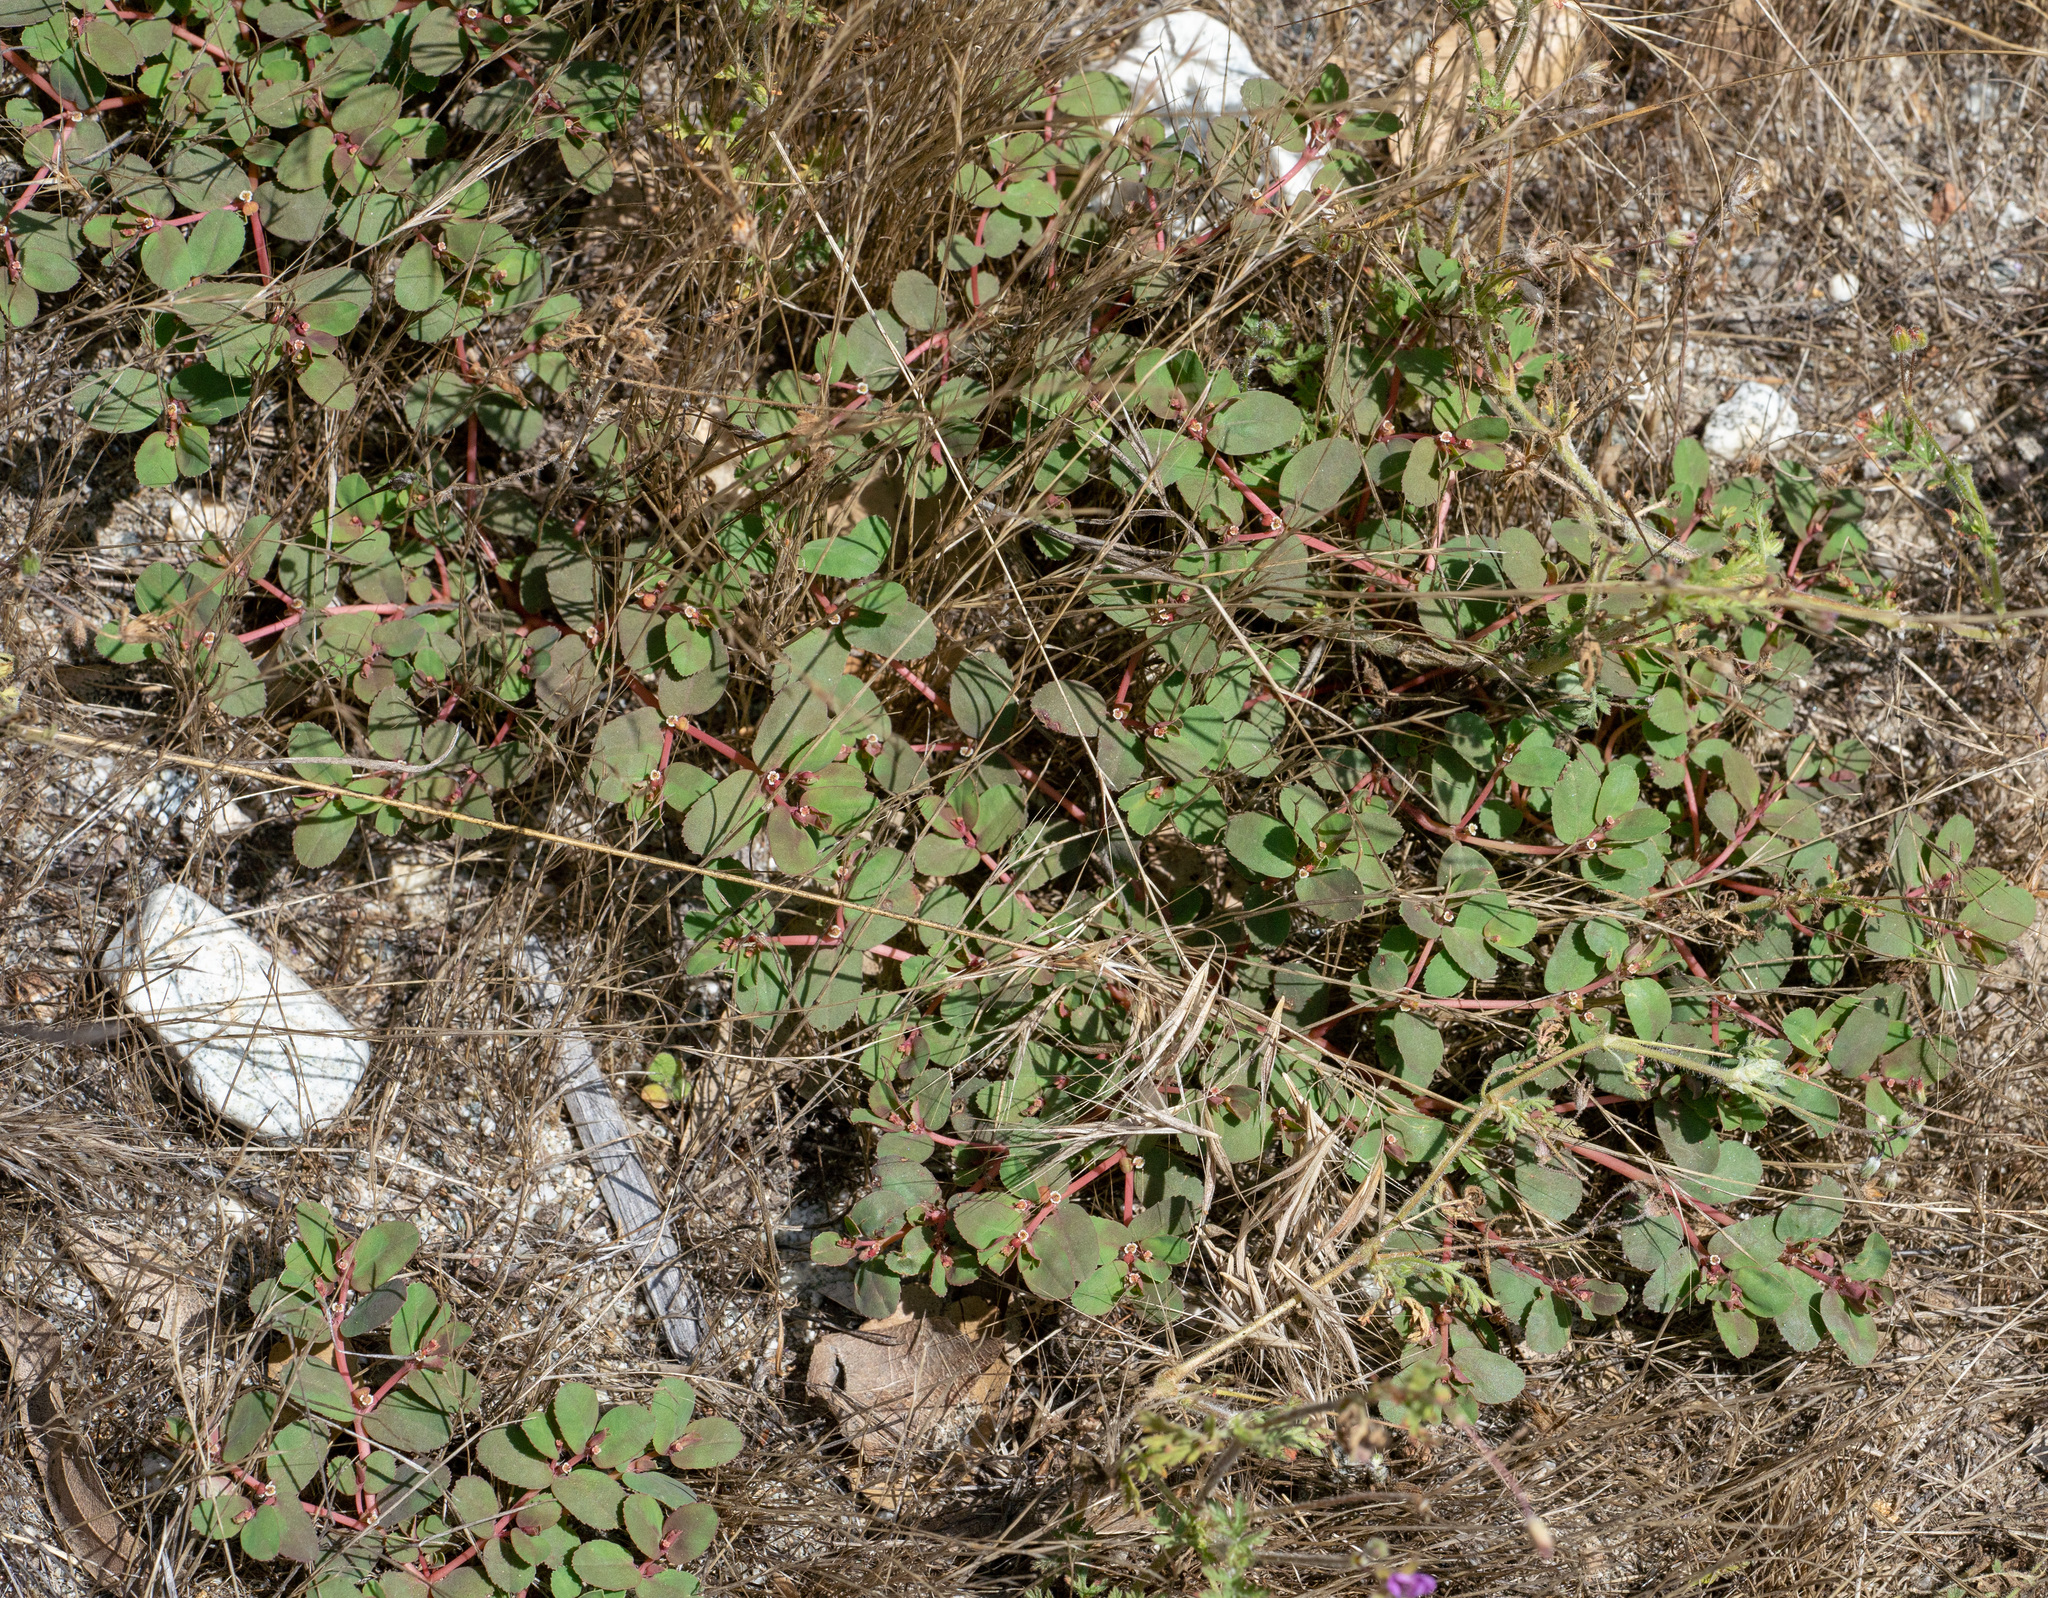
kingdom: Plantae
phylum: Tracheophyta
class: Magnoliopsida
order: Malpighiales
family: Euphorbiaceae
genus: Euphorbia
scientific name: Euphorbia serpillifolia
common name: Thyme-leaf spurge
